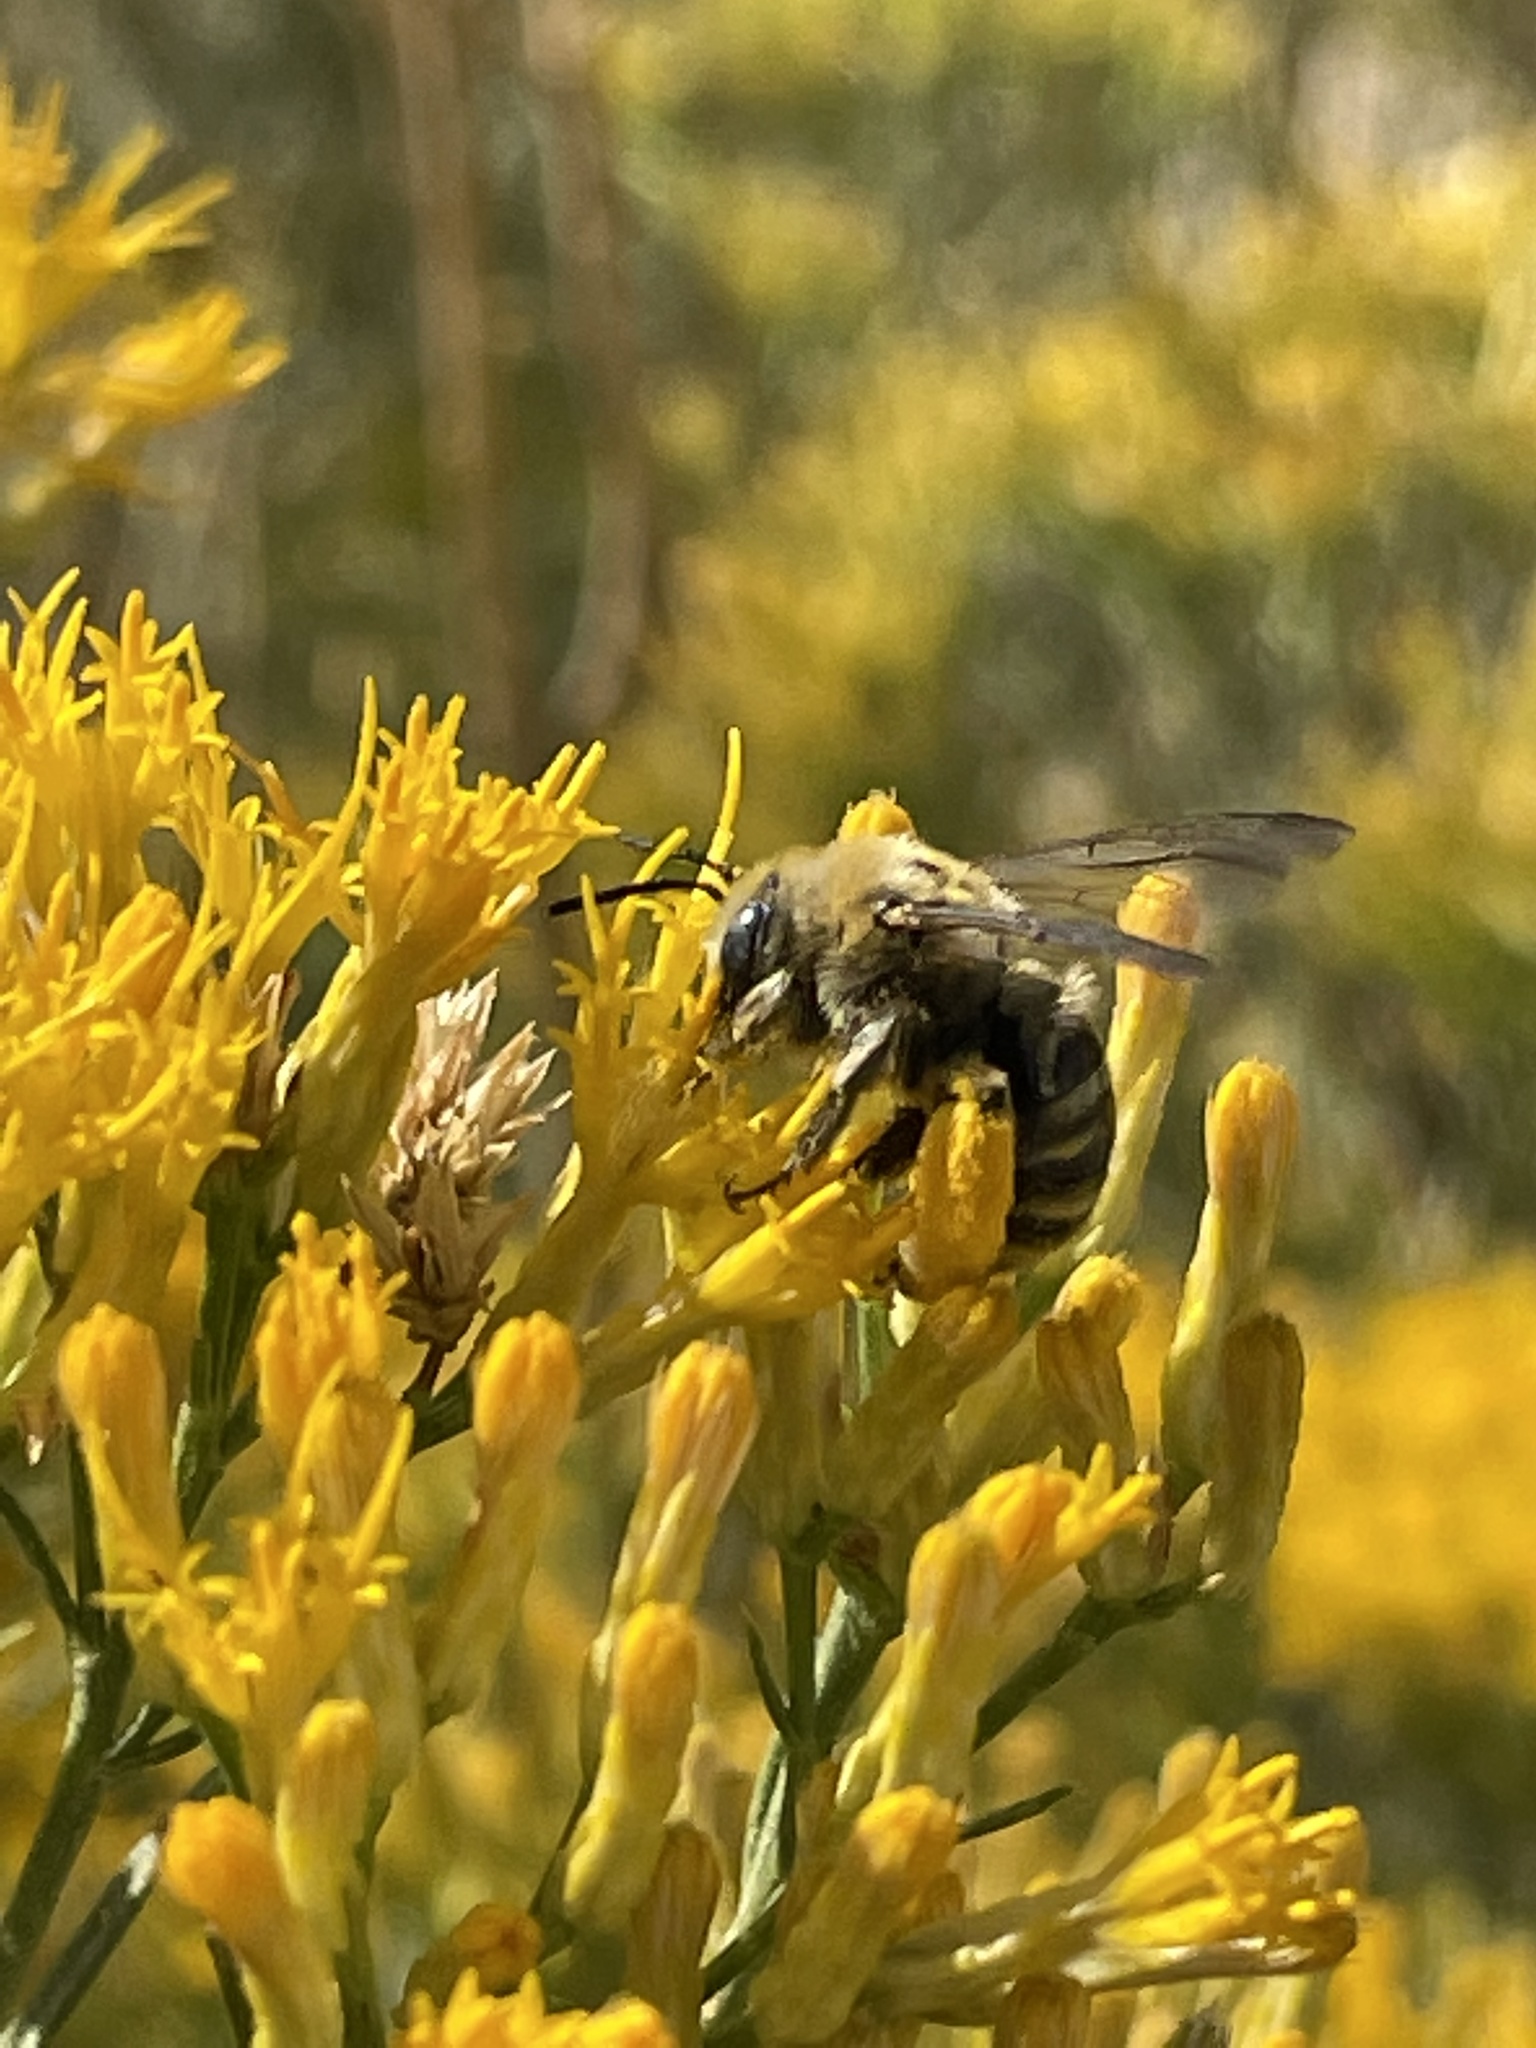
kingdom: Animalia
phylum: Arthropoda
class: Insecta
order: Hymenoptera
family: Apidae
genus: Melissodes
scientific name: Melissodes
